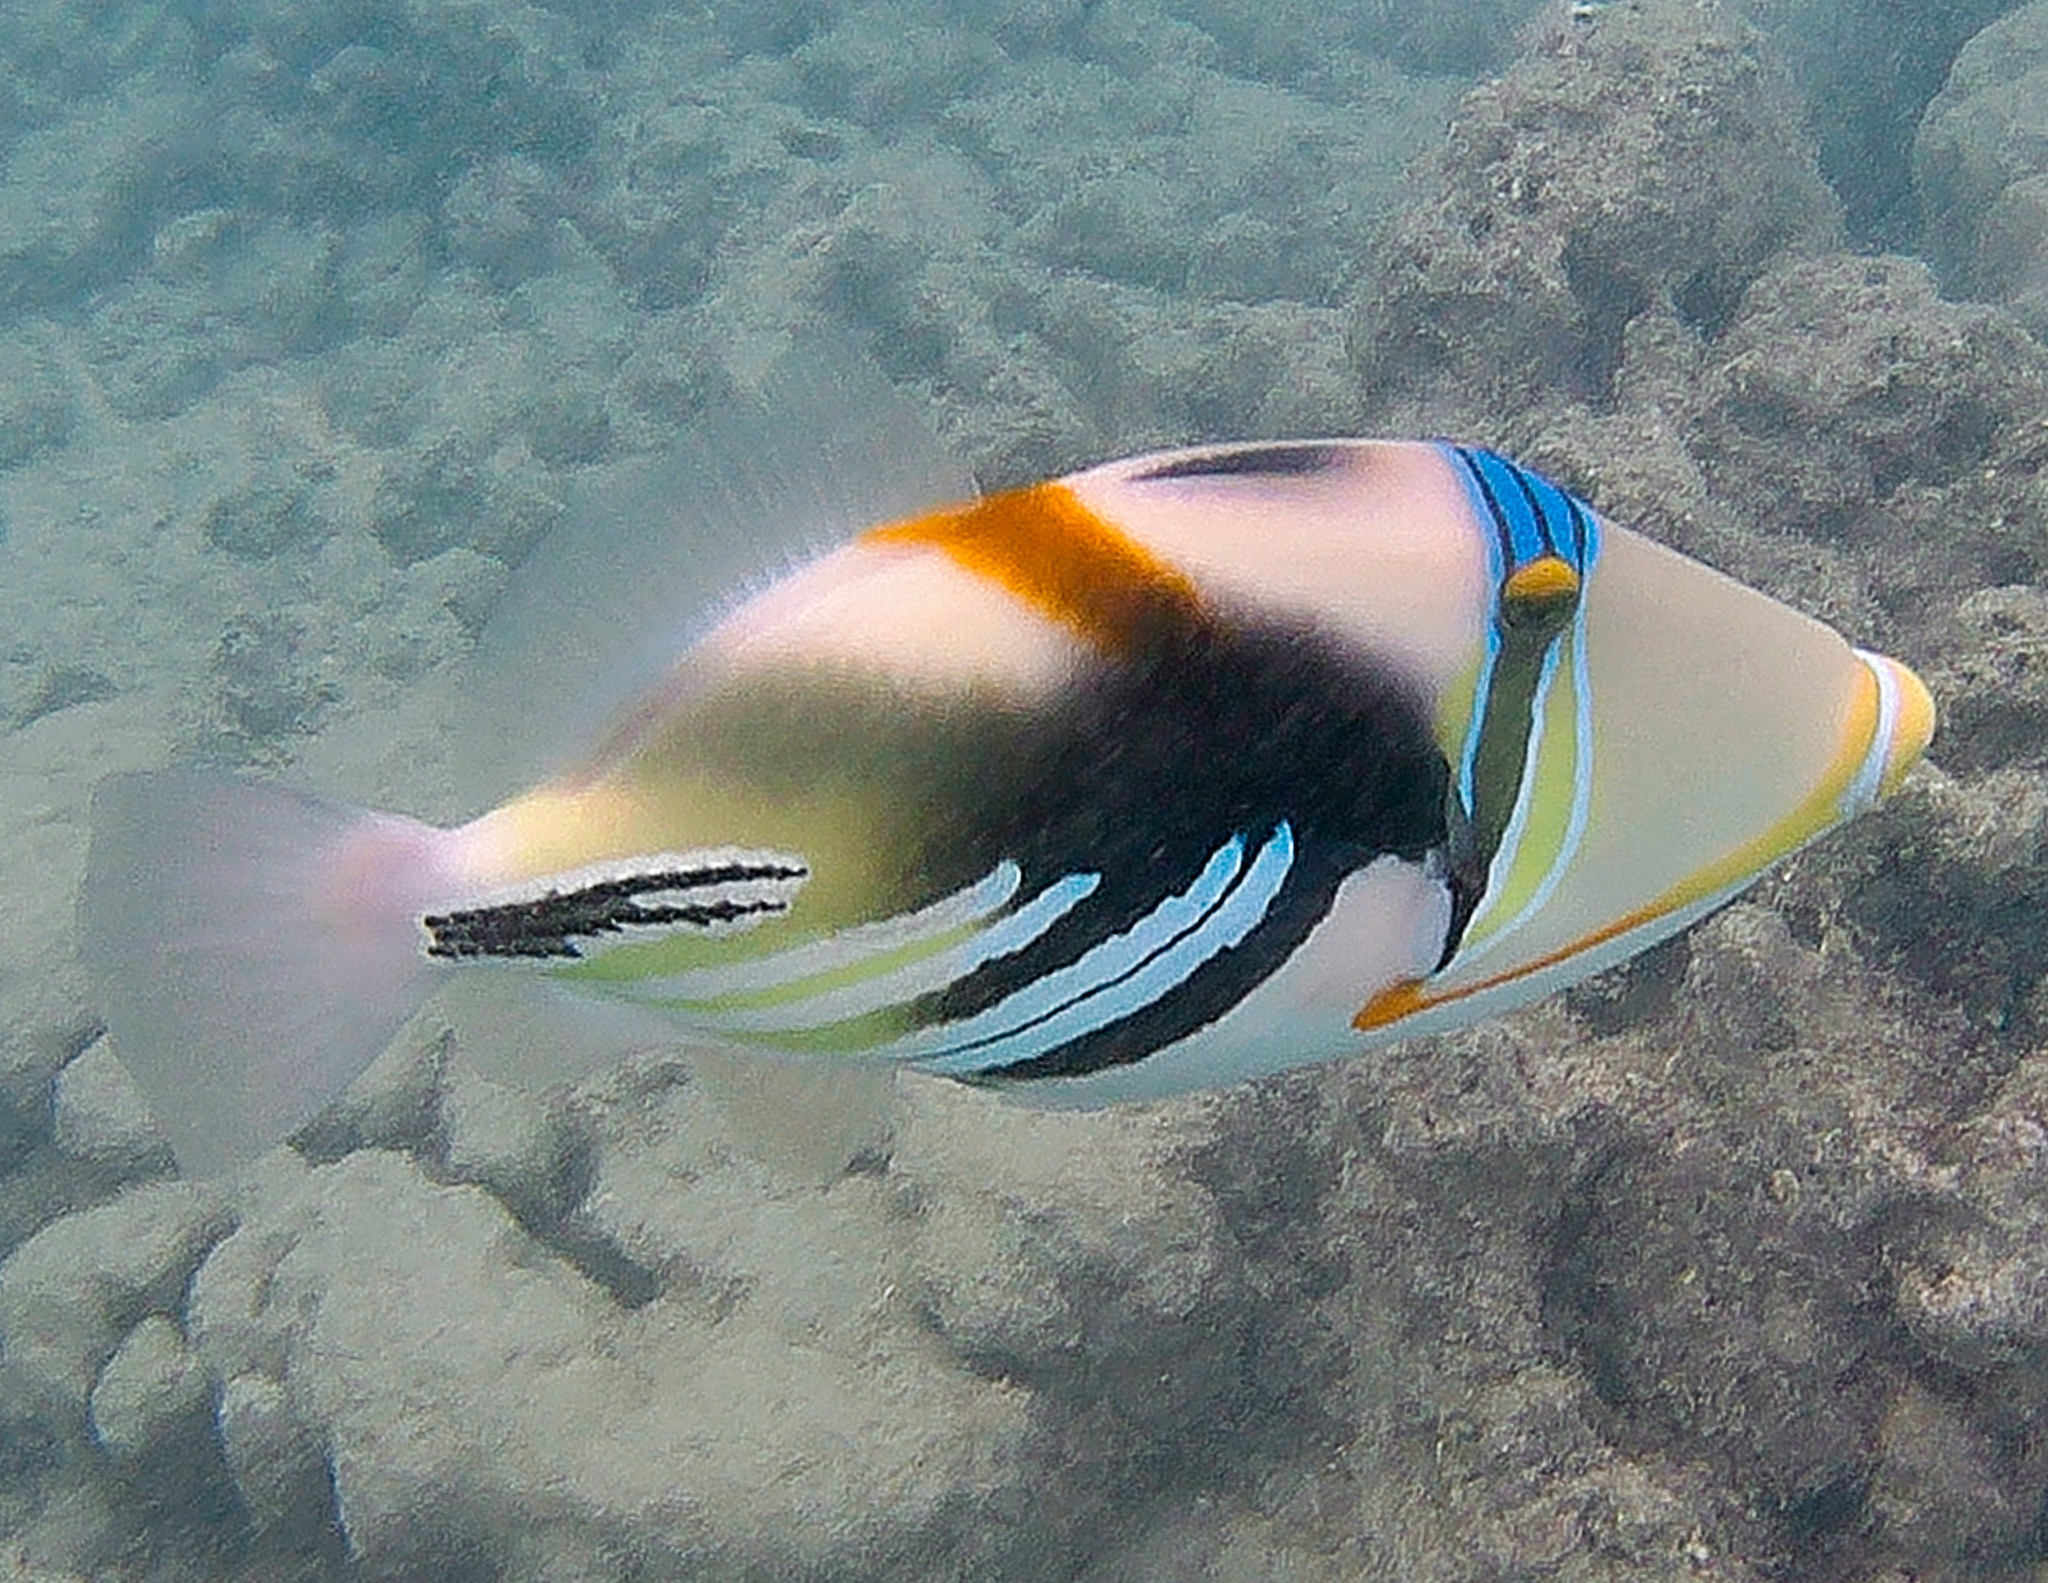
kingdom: Animalia
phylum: Chordata
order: Tetraodontiformes
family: Balistidae
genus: Rhinecanthus
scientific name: Rhinecanthus aculeatus
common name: White-banded triggerfish
